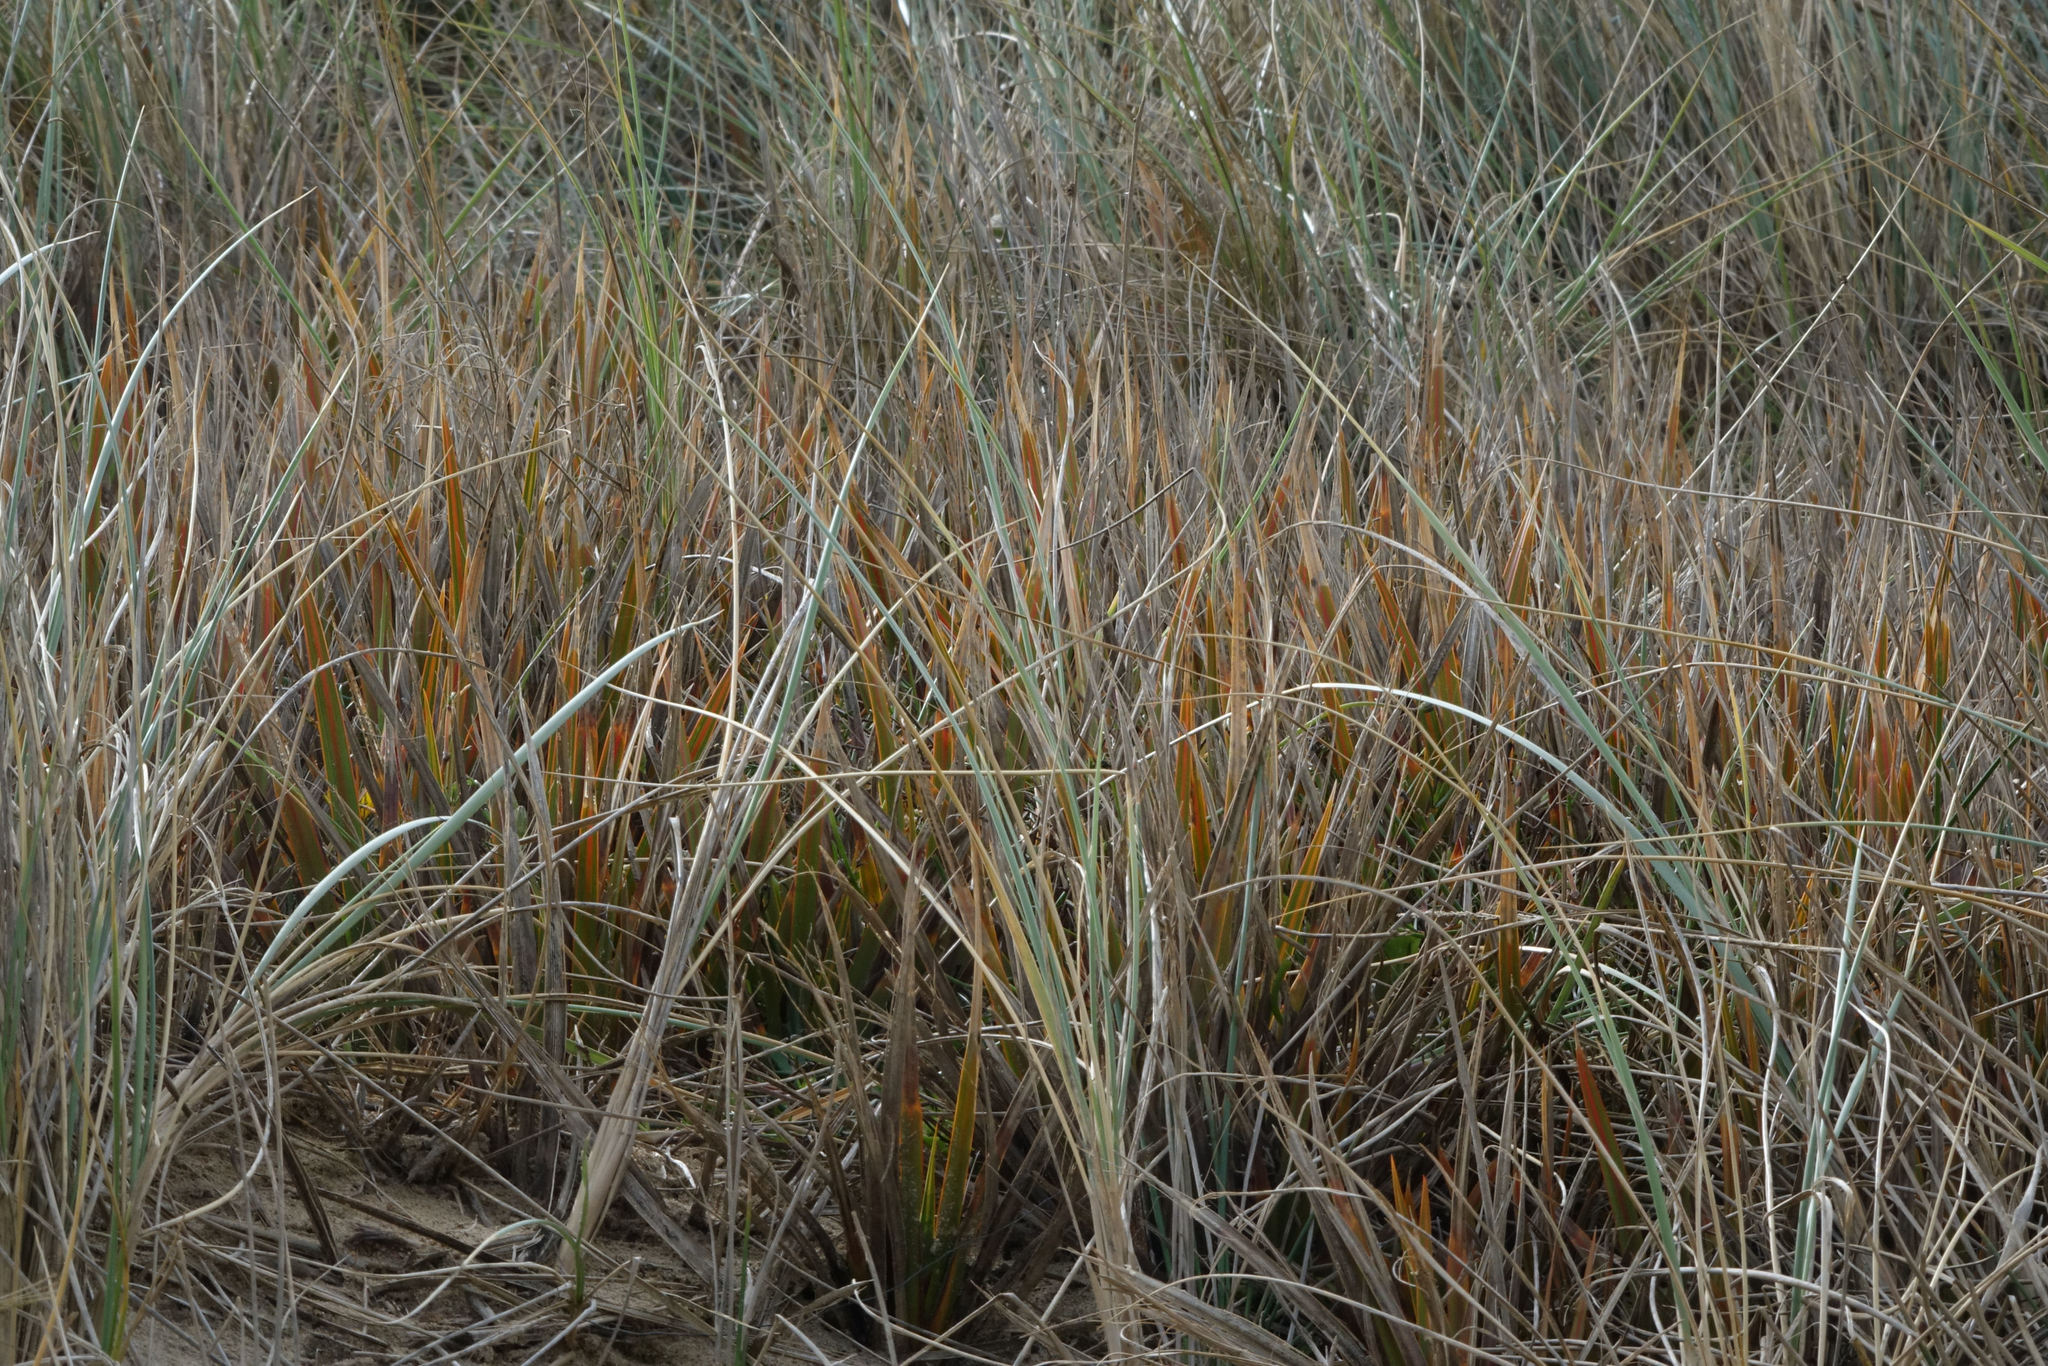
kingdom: Plantae
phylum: Tracheophyta
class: Liliopsida
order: Asparagales
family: Iridaceae
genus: Libertia
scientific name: Libertia peregrinans
